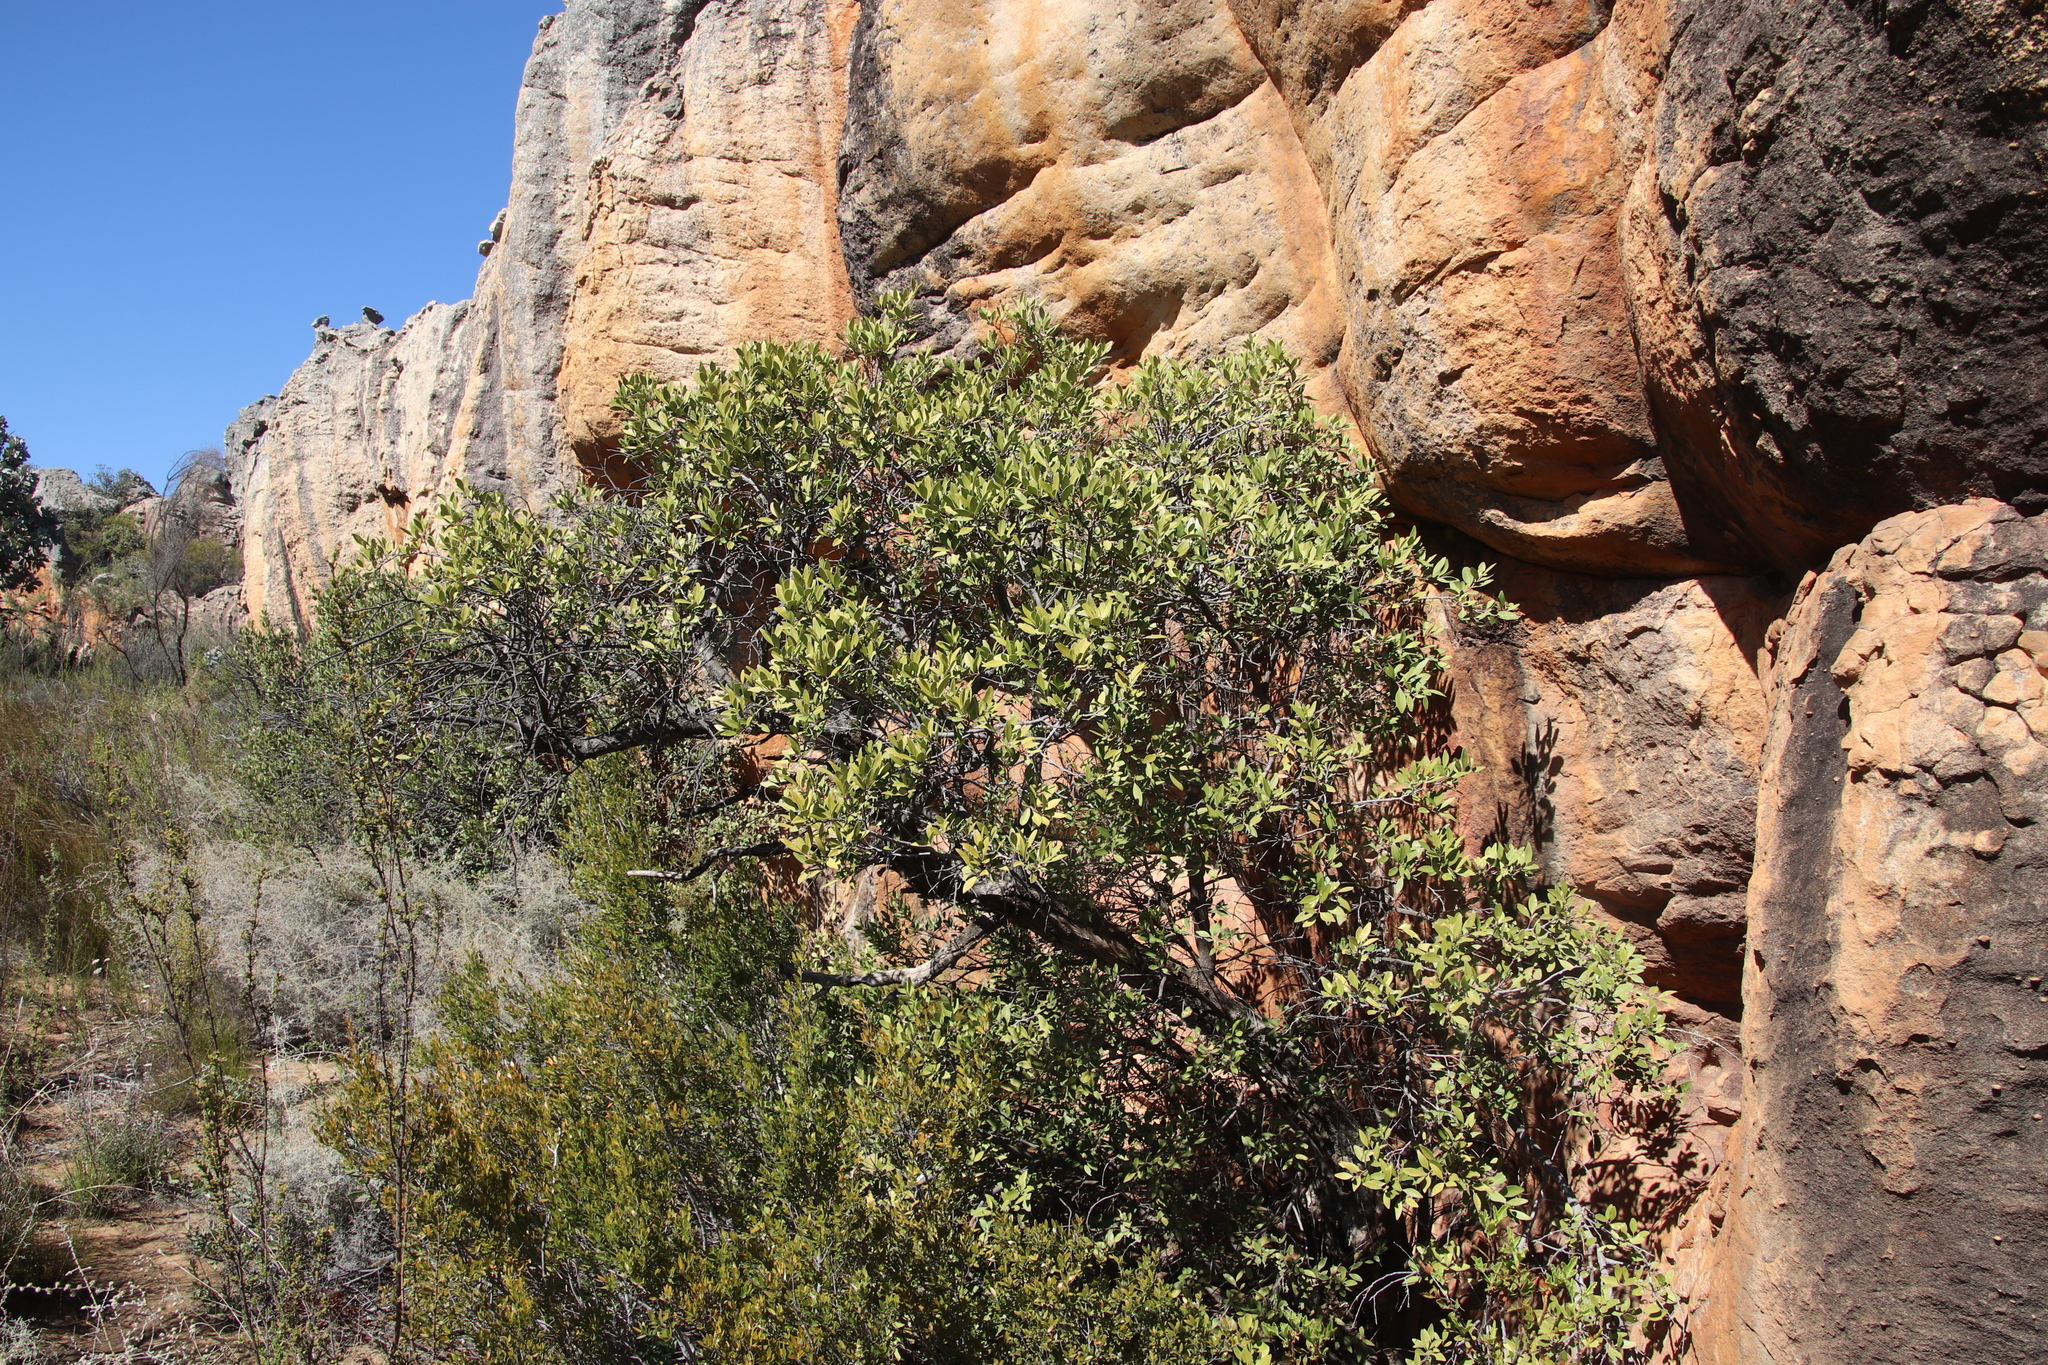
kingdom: Plantae
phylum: Tracheophyta
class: Magnoliopsida
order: Celastrales
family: Celastraceae
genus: Gymnosporia
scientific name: Gymnosporia laurina
